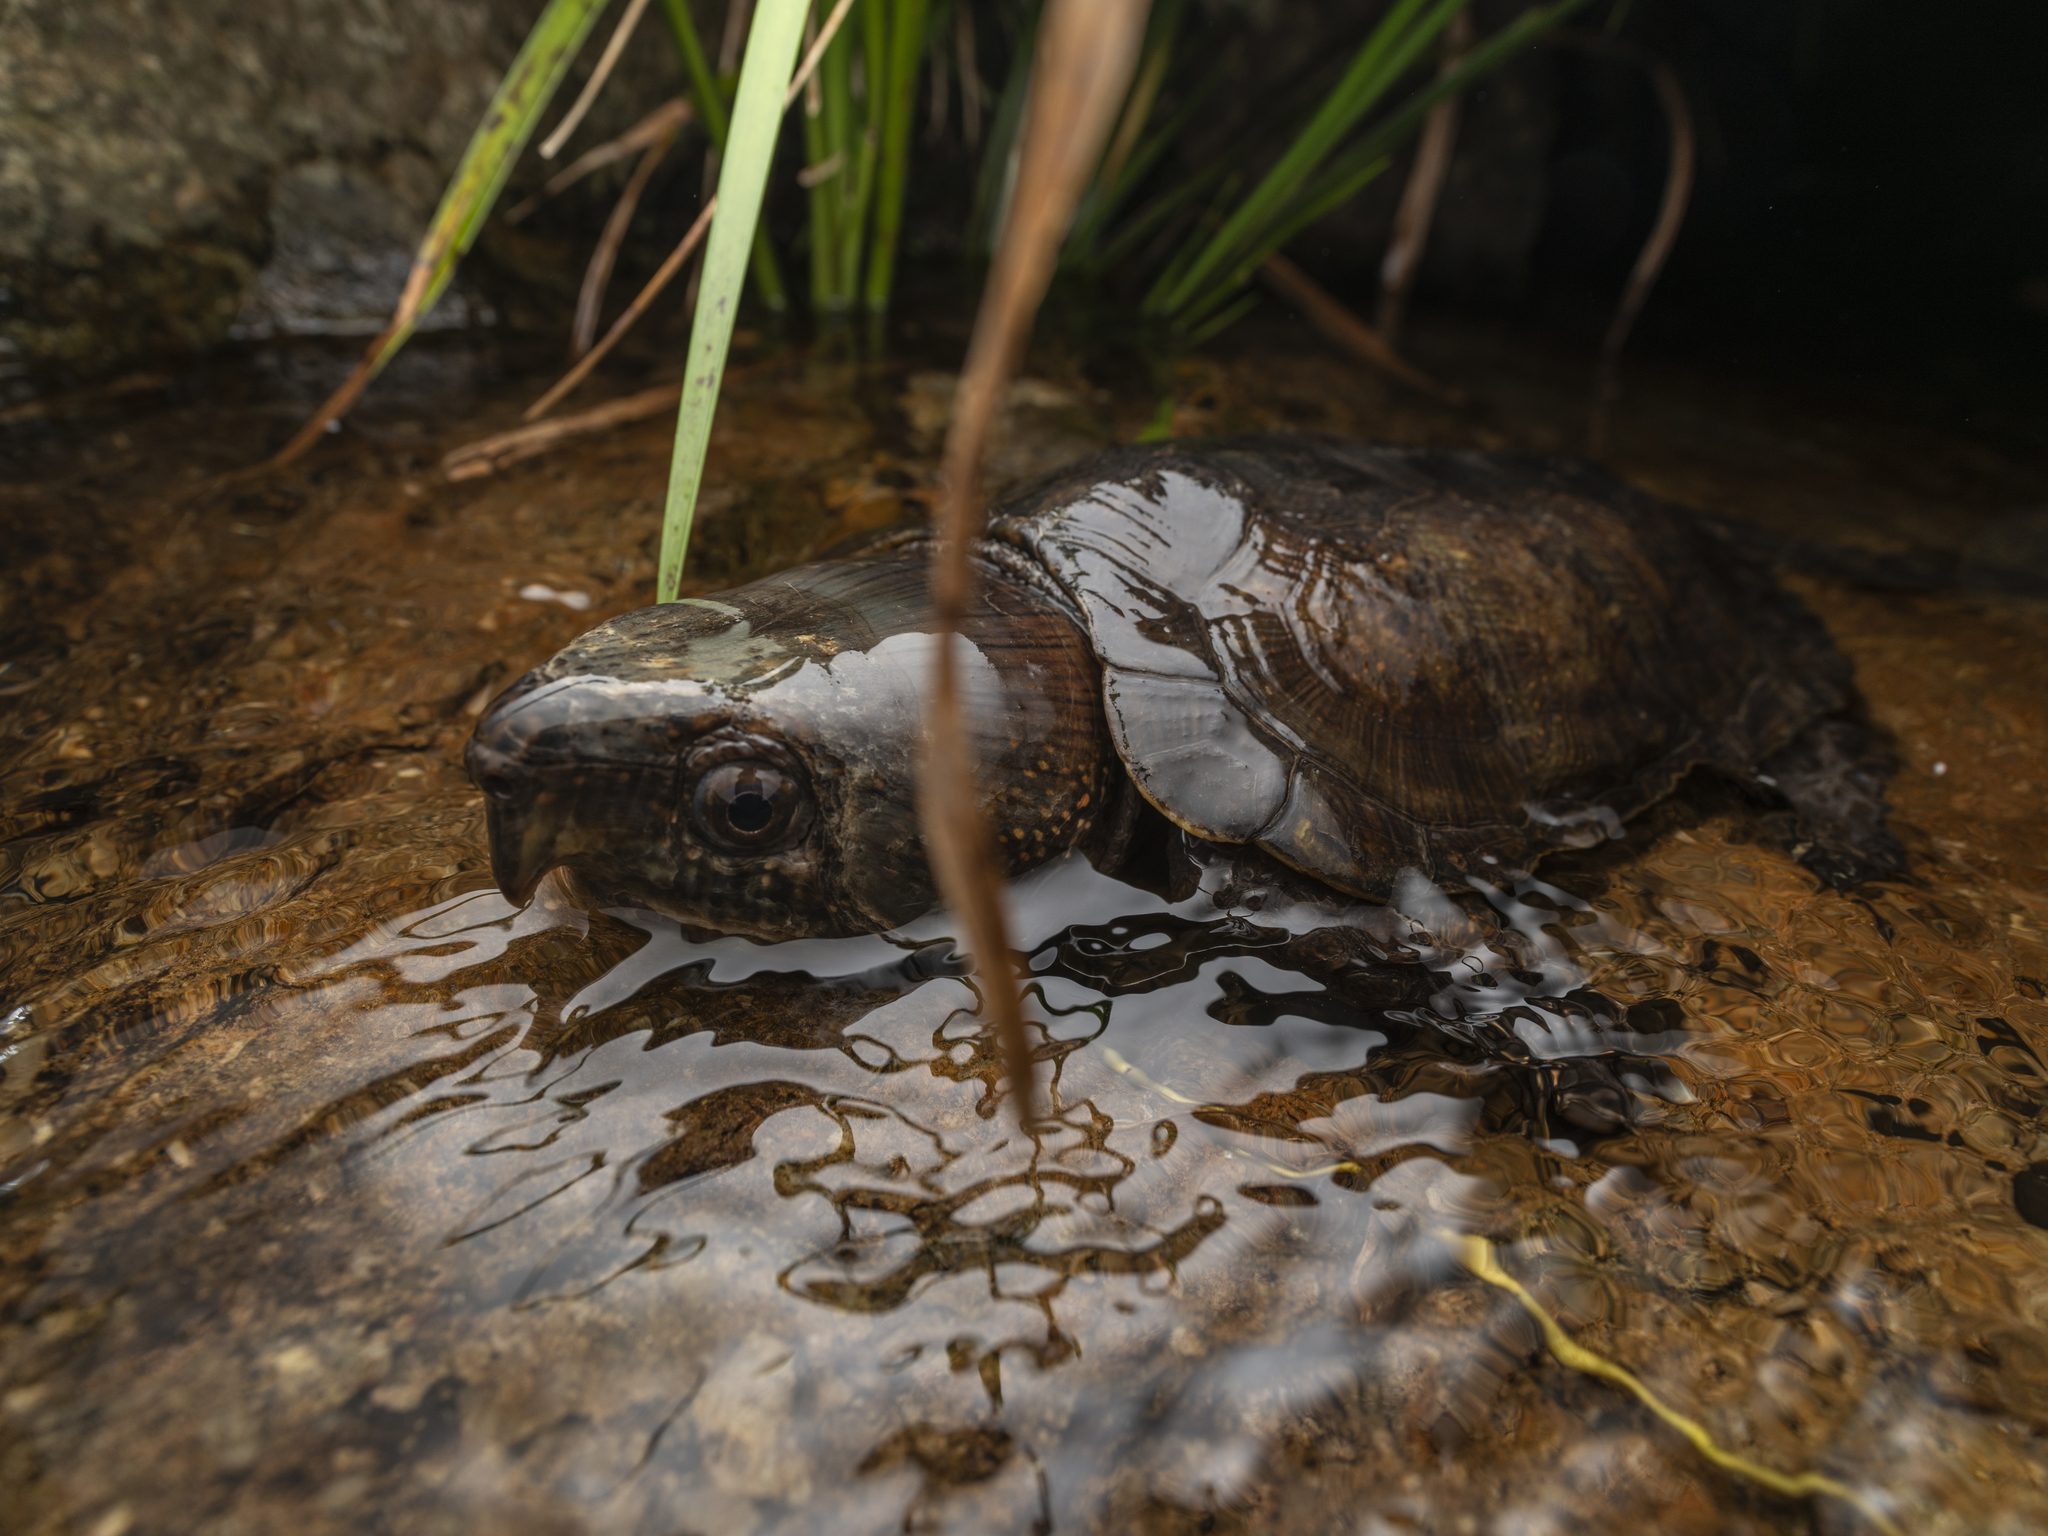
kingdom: Animalia
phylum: Chordata
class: Testudines
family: Platysternidae
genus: Platysternon
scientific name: Platysternon megacephalum
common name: Big-headed turtle
